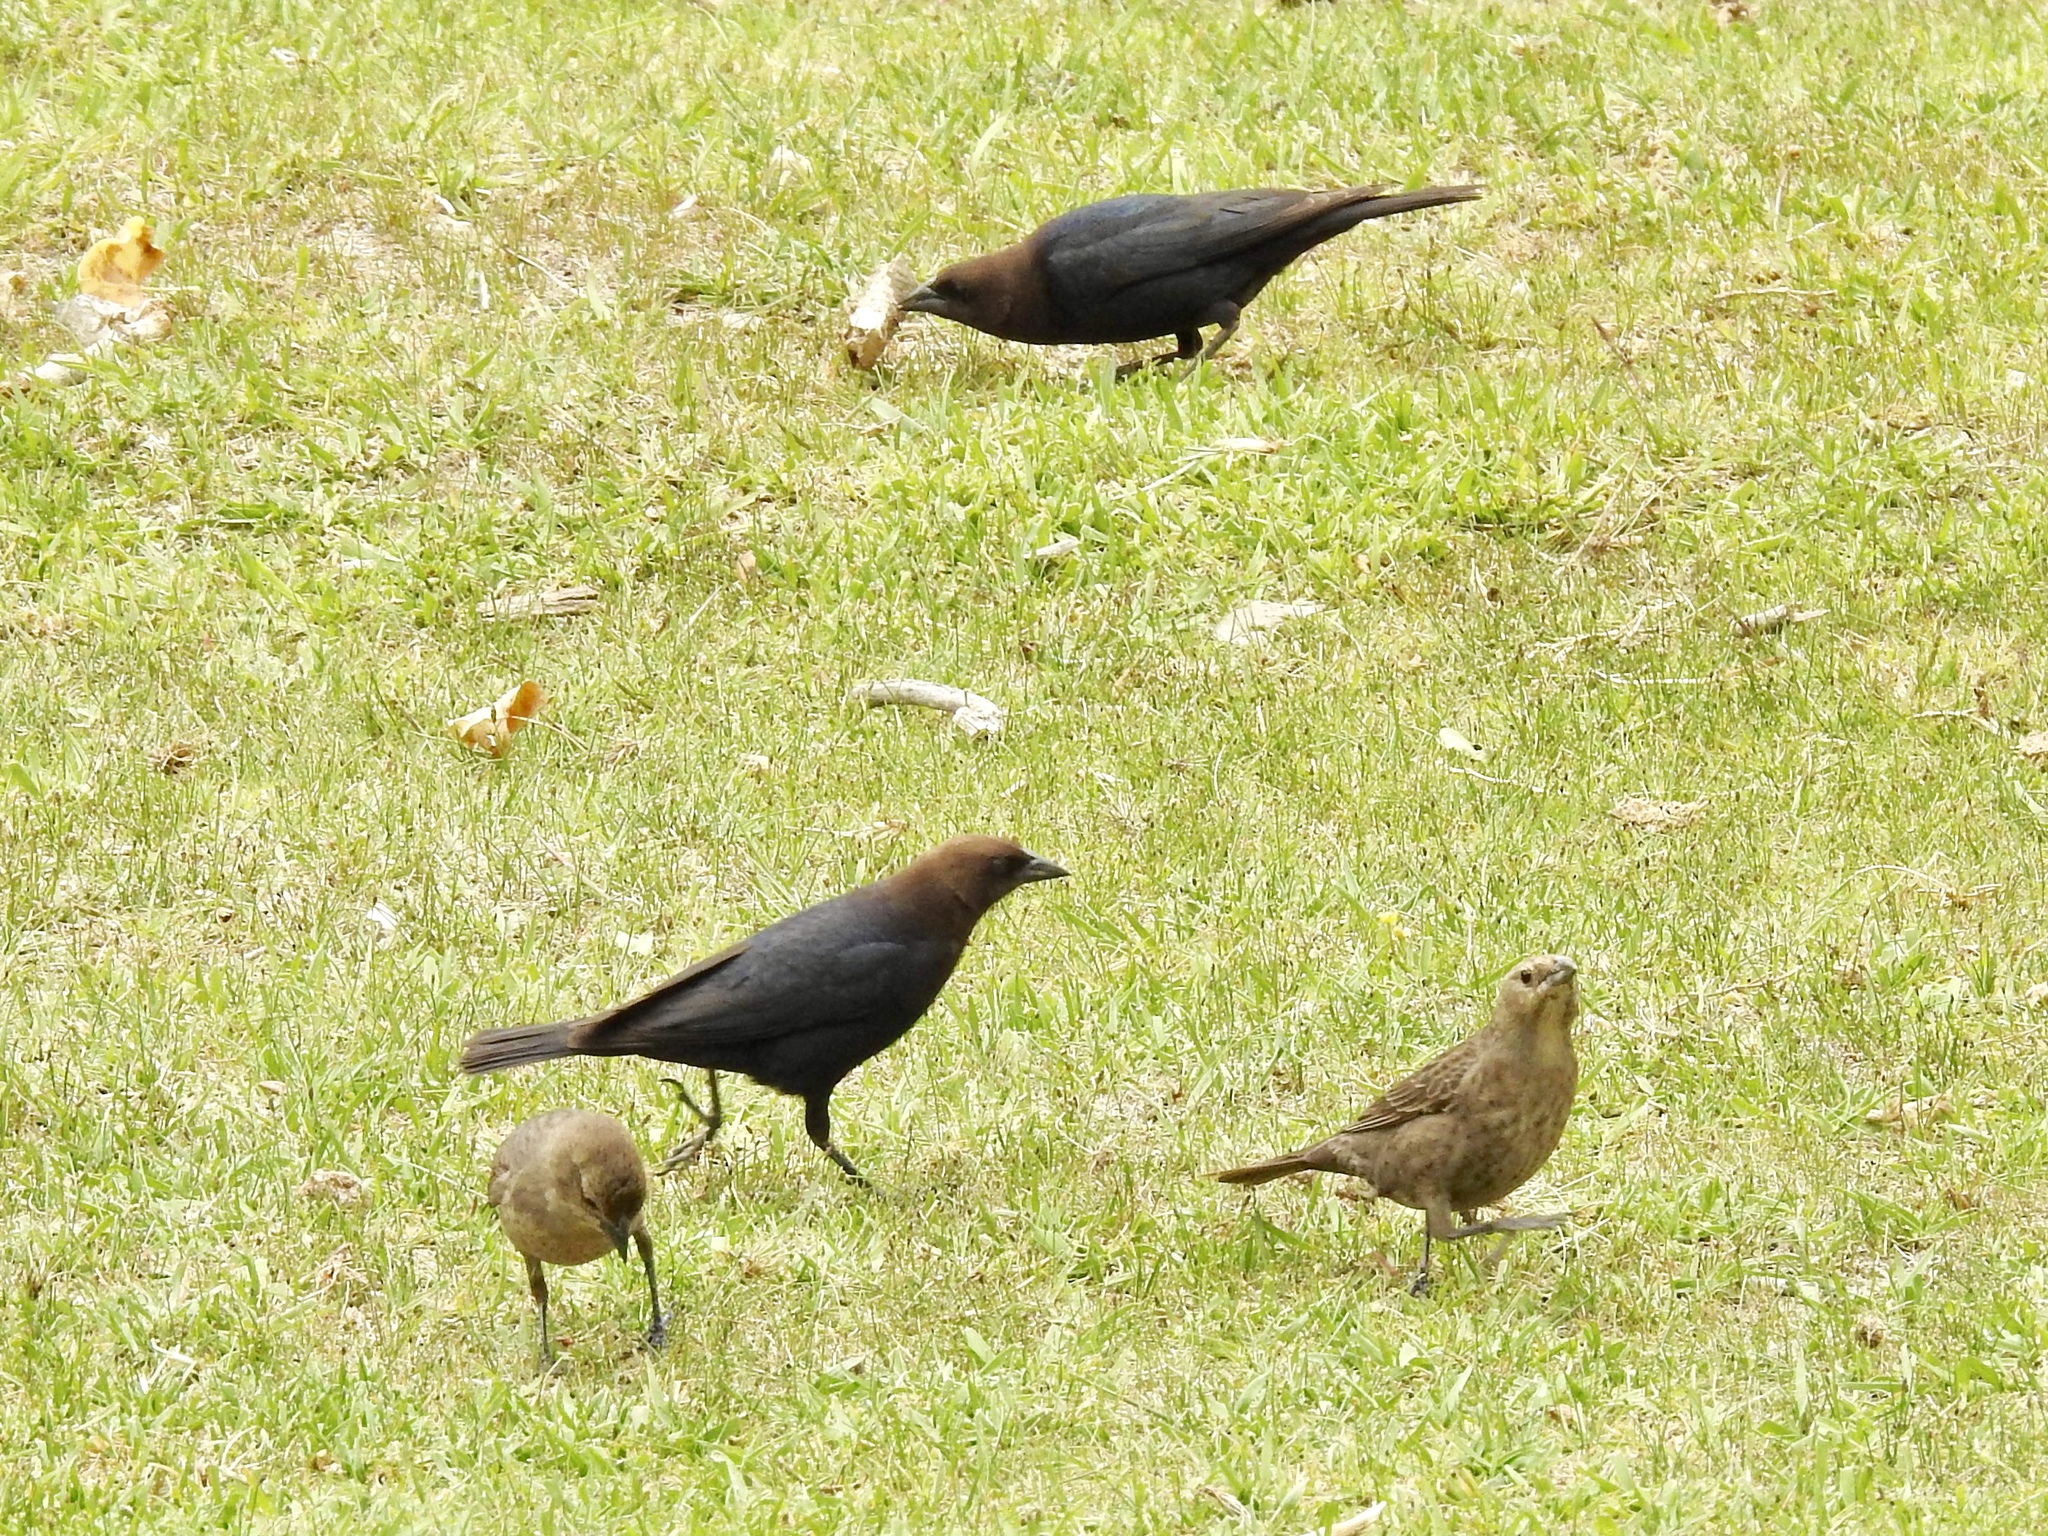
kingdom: Animalia
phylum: Chordata
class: Aves
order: Passeriformes
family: Icteridae
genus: Molothrus
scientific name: Molothrus ater
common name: Brown-headed cowbird
